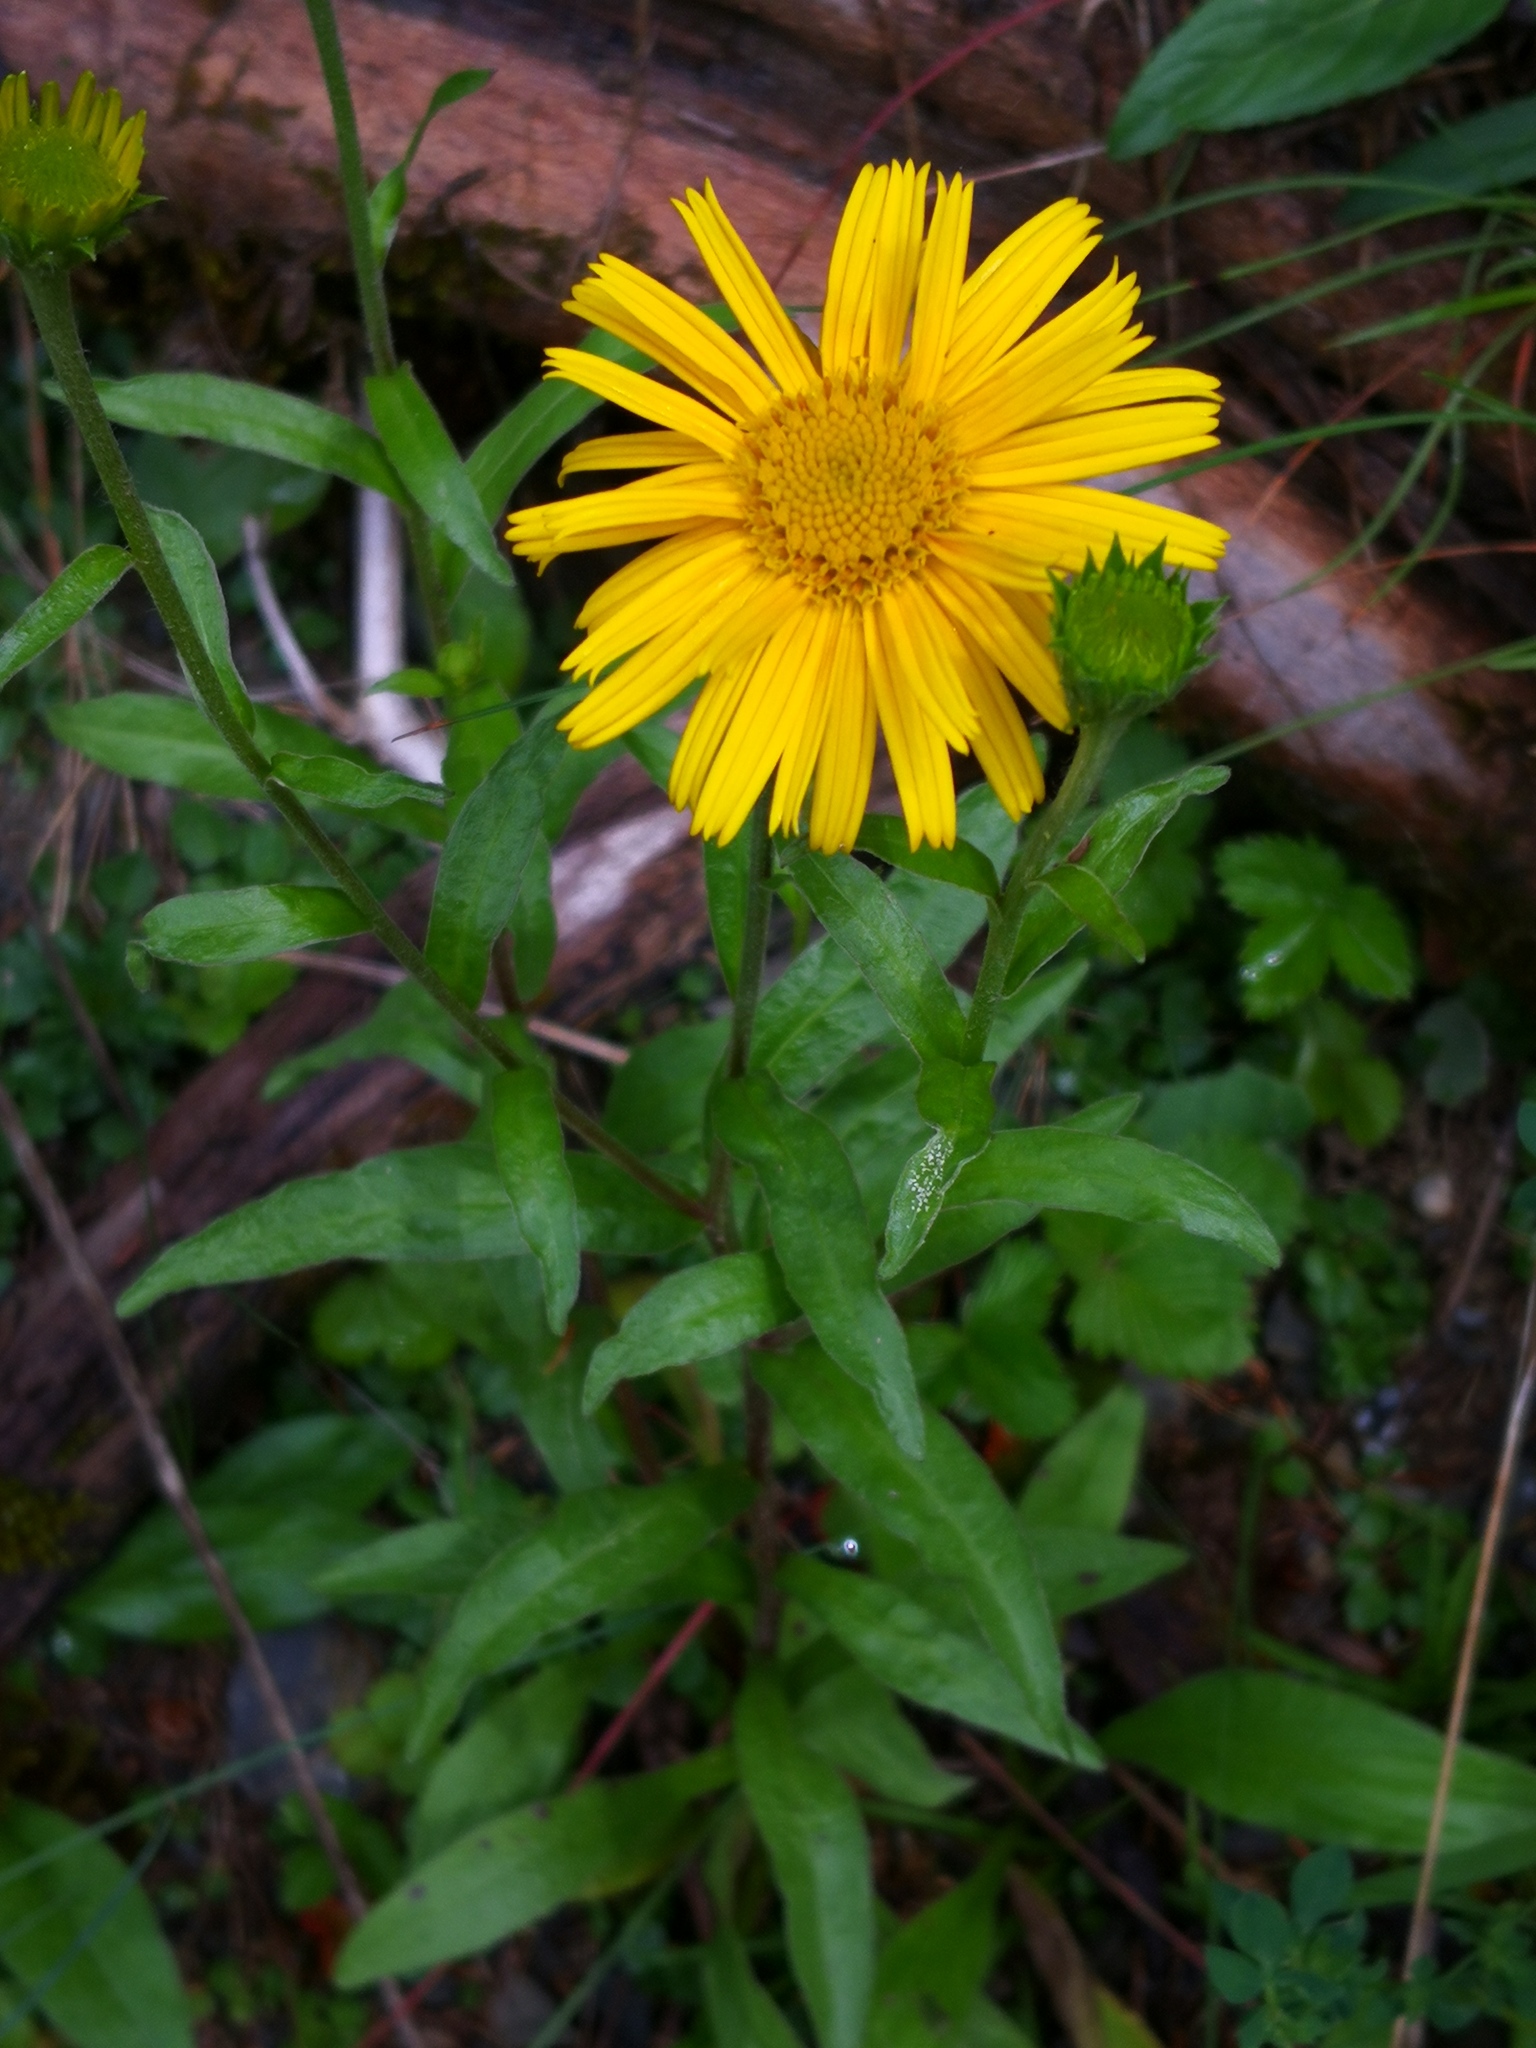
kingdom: Plantae
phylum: Tracheophyta
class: Magnoliopsida
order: Asterales
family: Asteraceae
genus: Buphthalmum
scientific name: Buphthalmum salicifolium
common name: Willow-leaved yellow-oxeye
